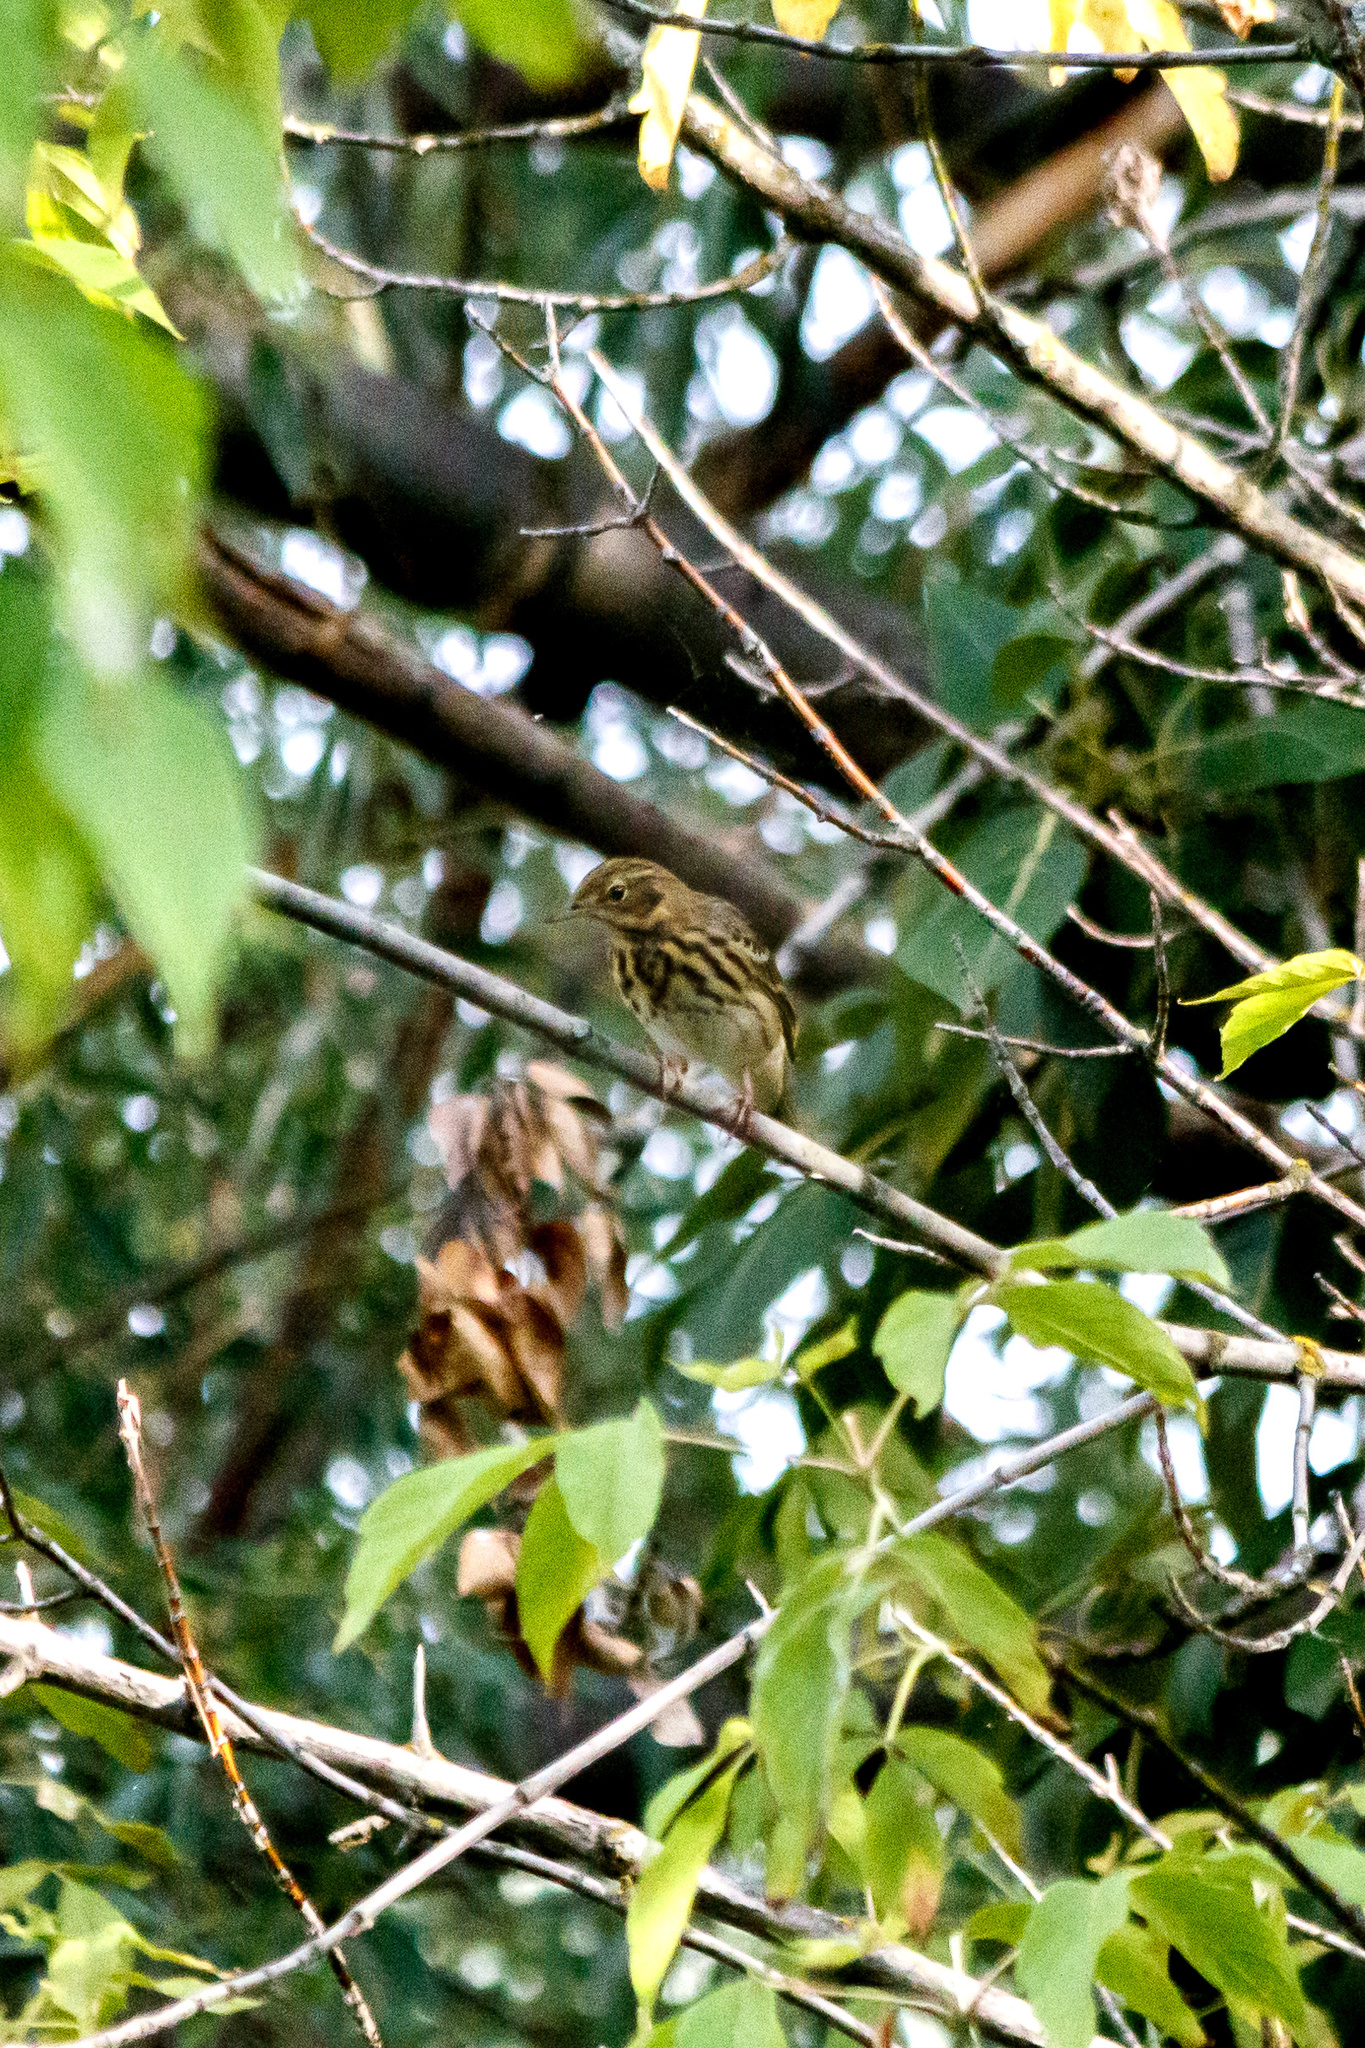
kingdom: Animalia
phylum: Chordata
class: Aves
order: Passeriformes
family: Motacillidae
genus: Anthus
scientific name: Anthus trivialis
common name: Tree pipit
